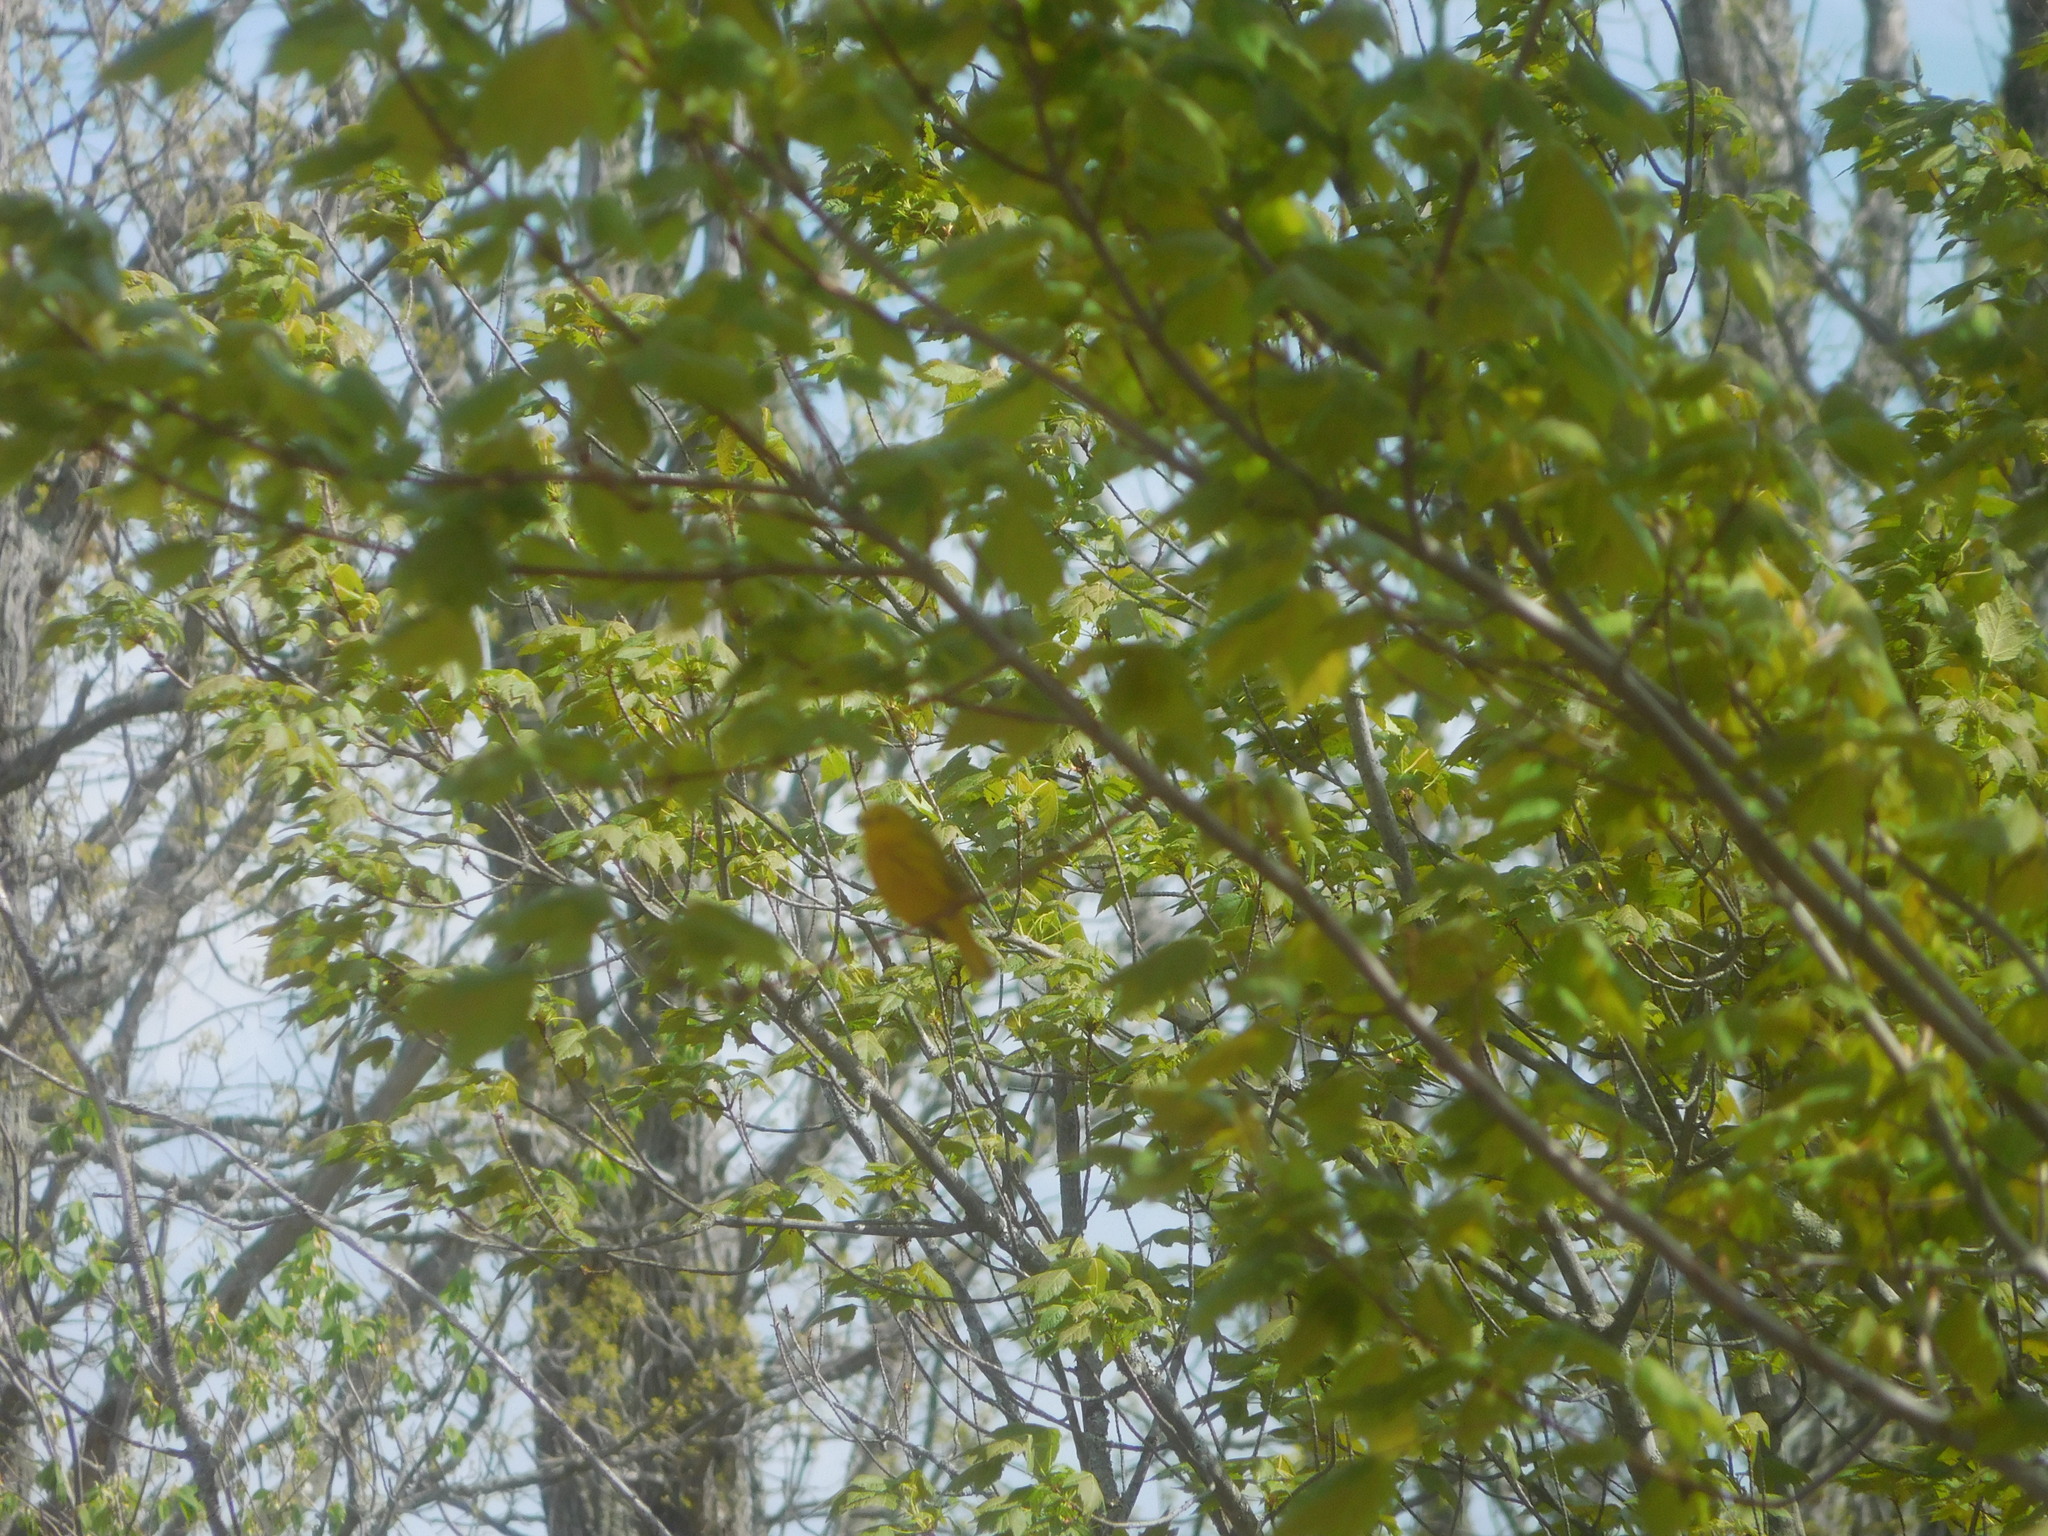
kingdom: Animalia
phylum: Chordata
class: Aves
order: Passeriformes
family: Parulidae
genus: Setophaga
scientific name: Setophaga petechia
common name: Yellow warbler
